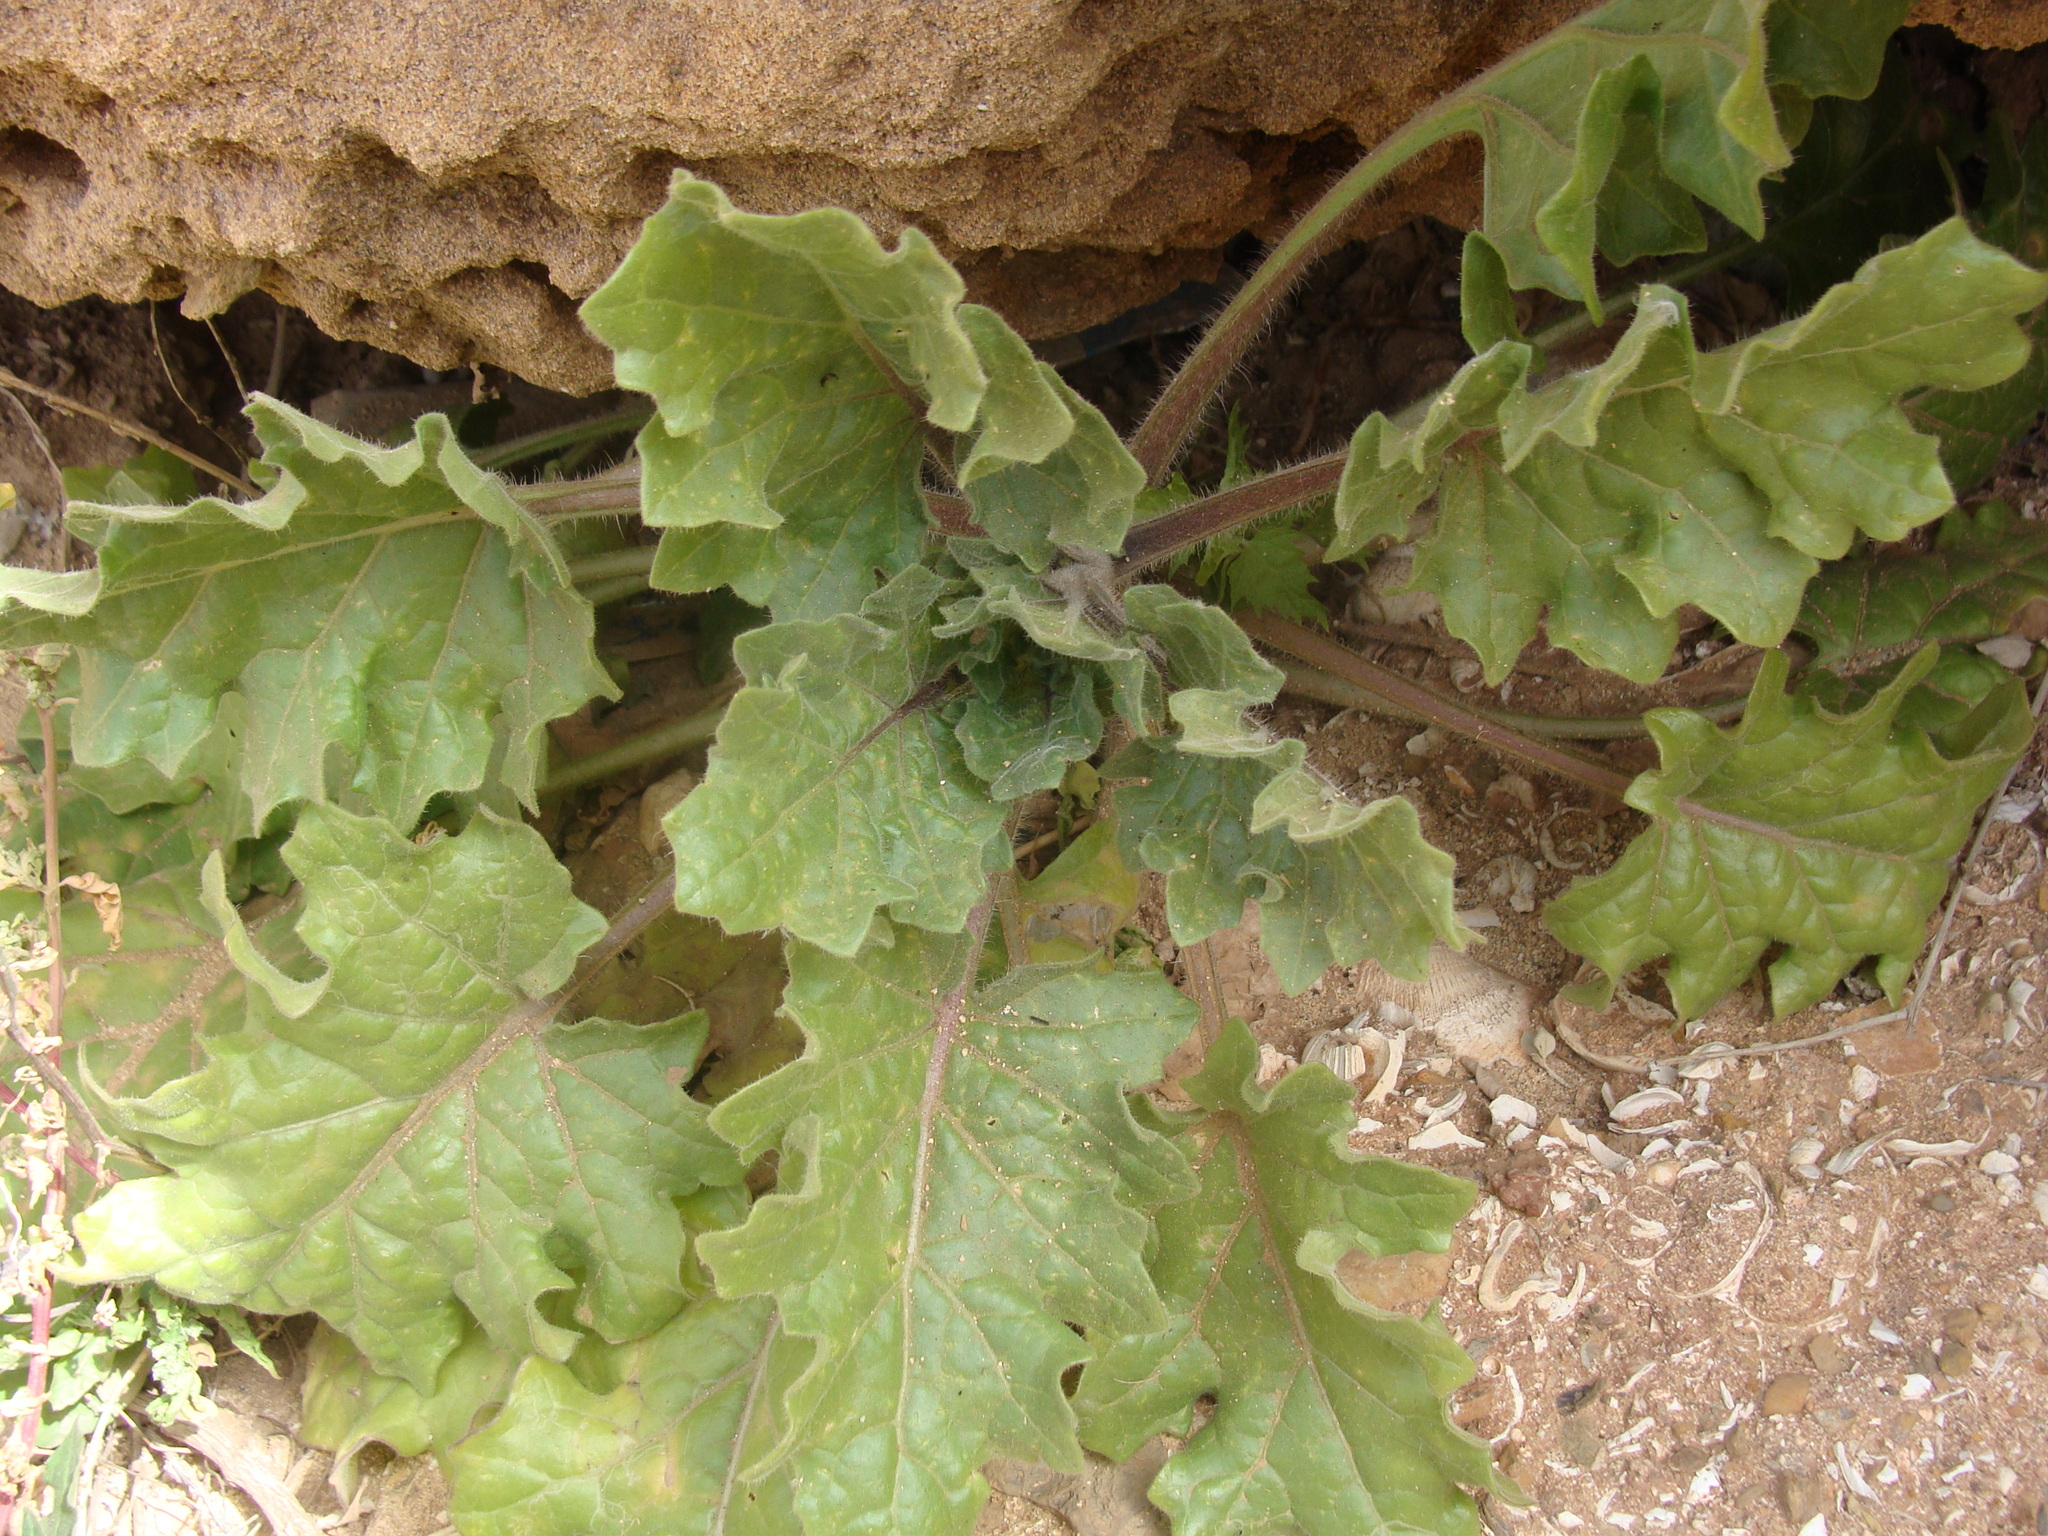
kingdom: Plantae
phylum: Tracheophyta
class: Magnoliopsida
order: Solanales
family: Solanaceae
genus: Hyoscyamus
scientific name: Hyoscyamus albus
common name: White henbane
